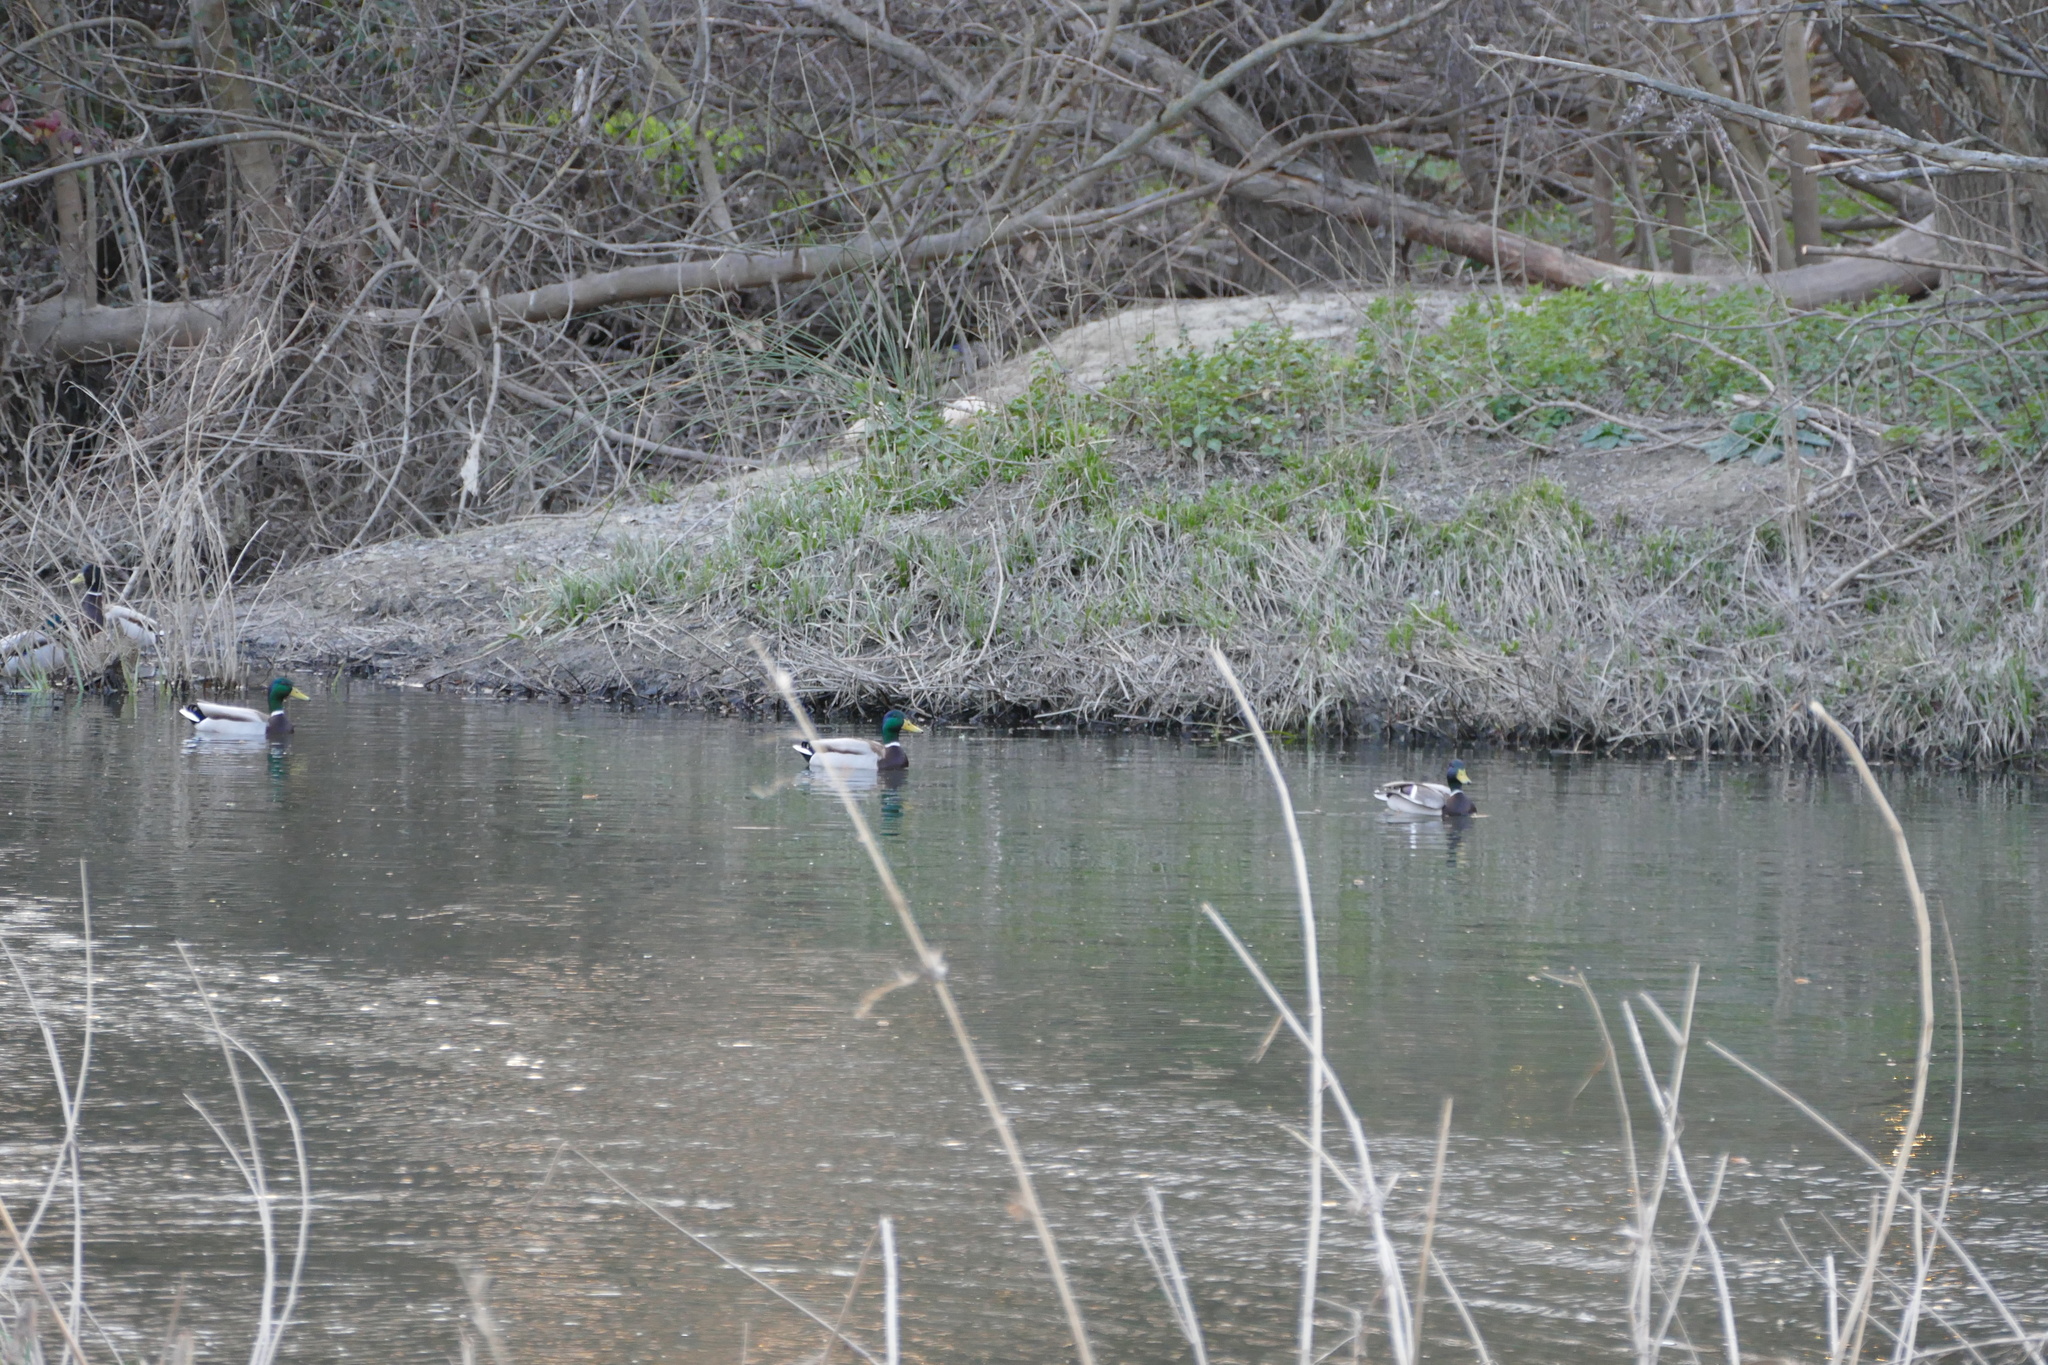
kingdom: Animalia
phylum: Chordata
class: Aves
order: Anseriformes
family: Anatidae
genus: Anas
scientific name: Anas platyrhynchos
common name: Mallard
